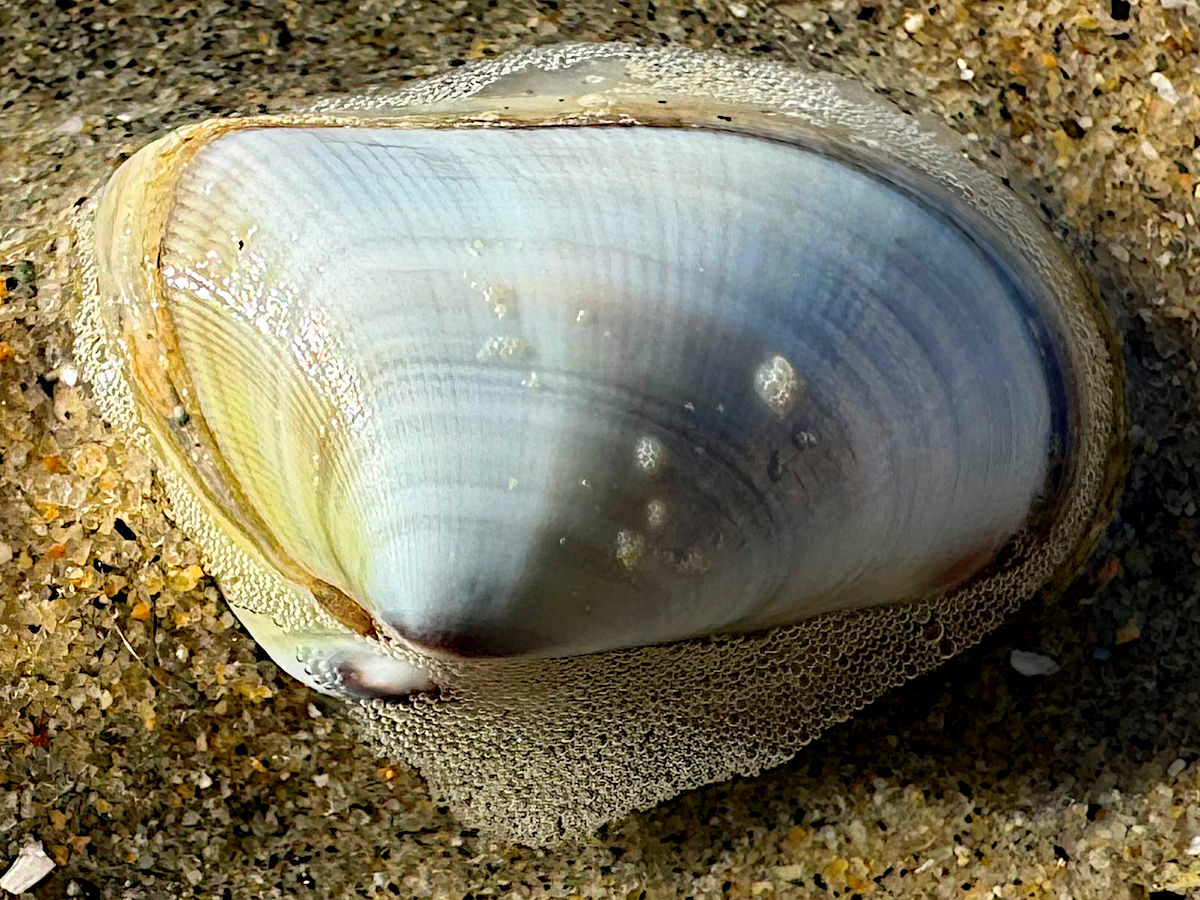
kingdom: Animalia
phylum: Mollusca
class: Bivalvia
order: Cardiida
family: Donacidae
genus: Donax
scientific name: Donax gouldii
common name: Gould beanclam
